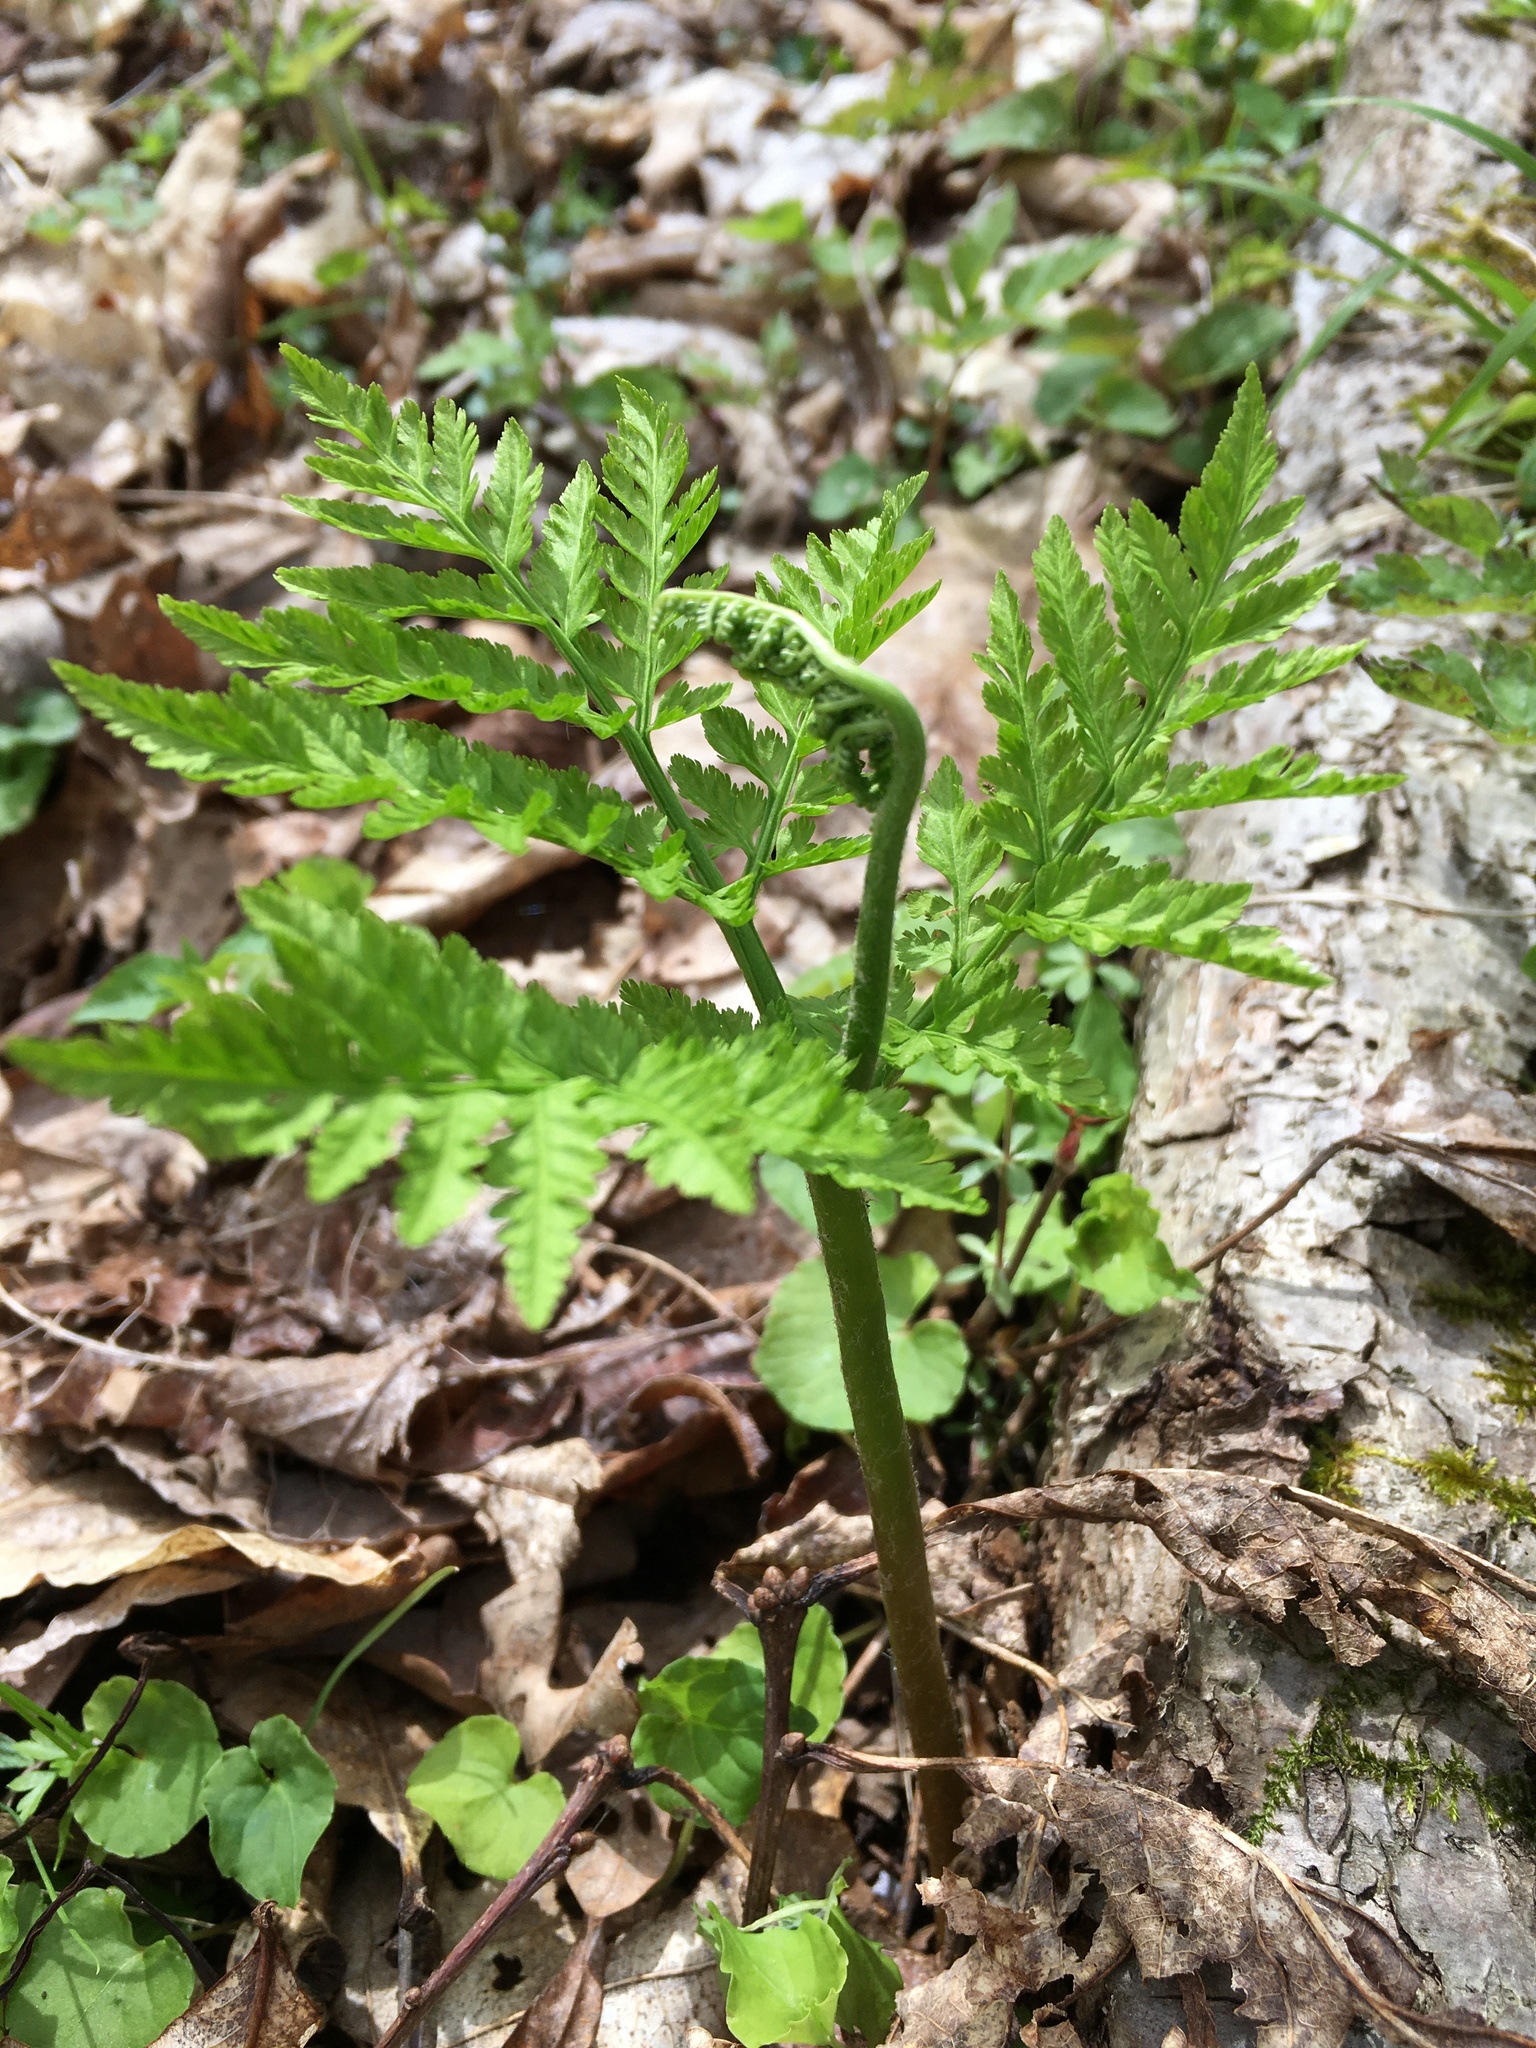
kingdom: Plantae
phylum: Tracheophyta
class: Polypodiopsida
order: Ophioglossales
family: Ophioglossaceae
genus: Botrypus
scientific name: Botrypus virginianus
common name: Common grapefern
